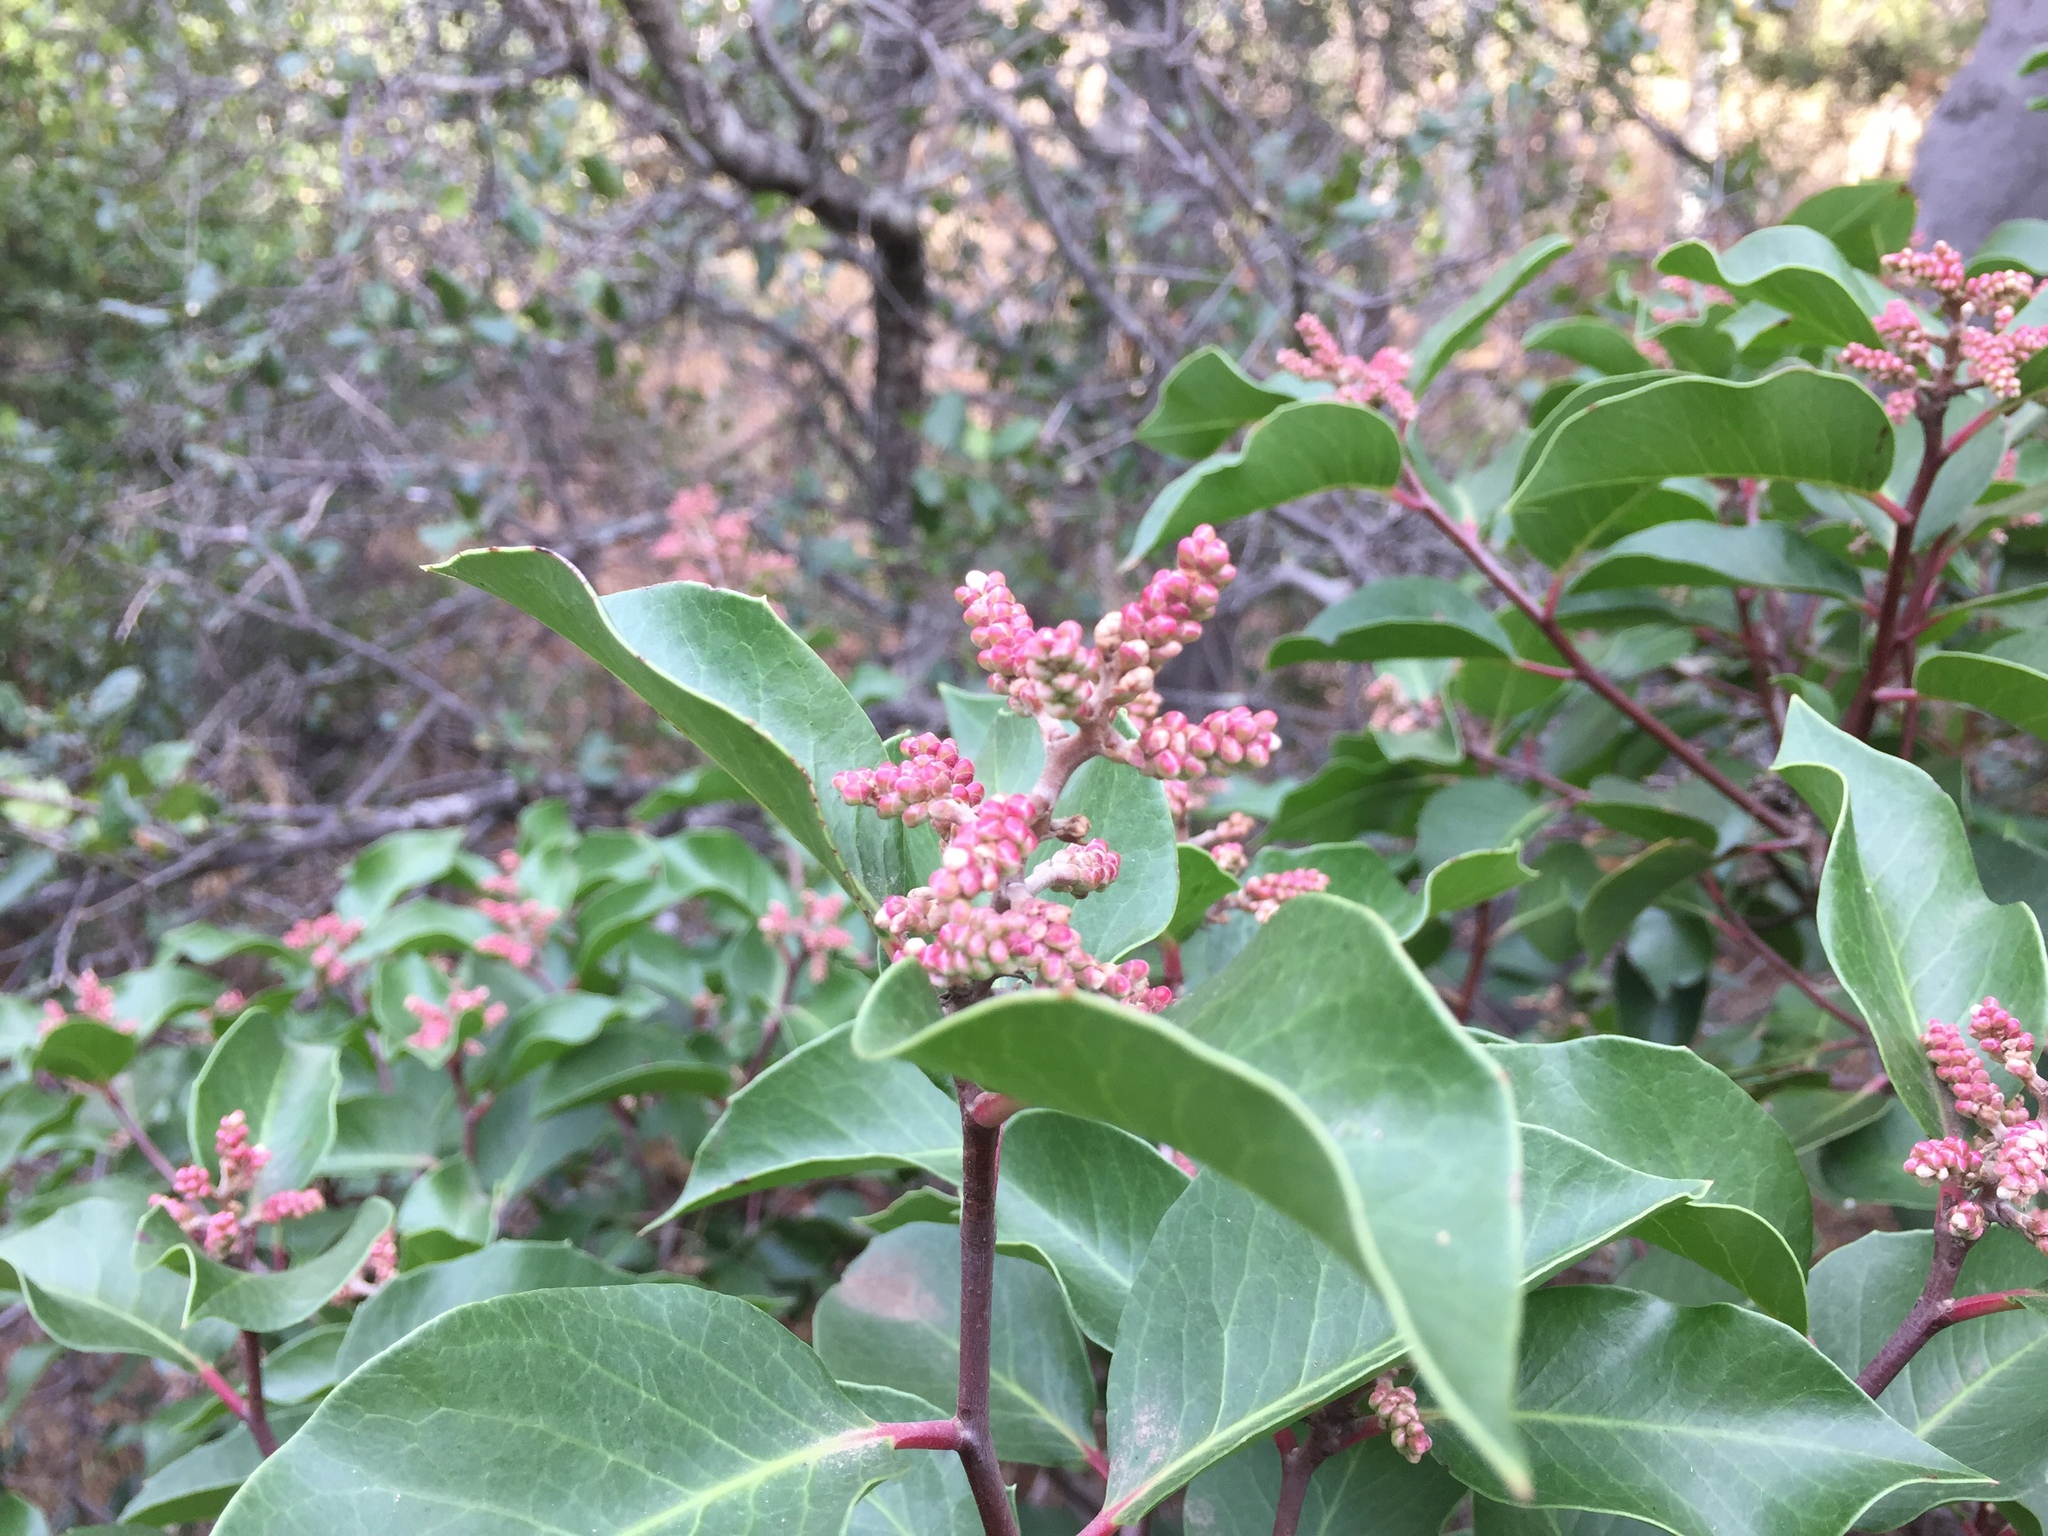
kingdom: Plantae
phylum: Tracheophyta
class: Magnoliopsida
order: Sapindales
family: Anacardiaceae
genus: Rhus
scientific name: Rhus ovata
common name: Sugar sumac
